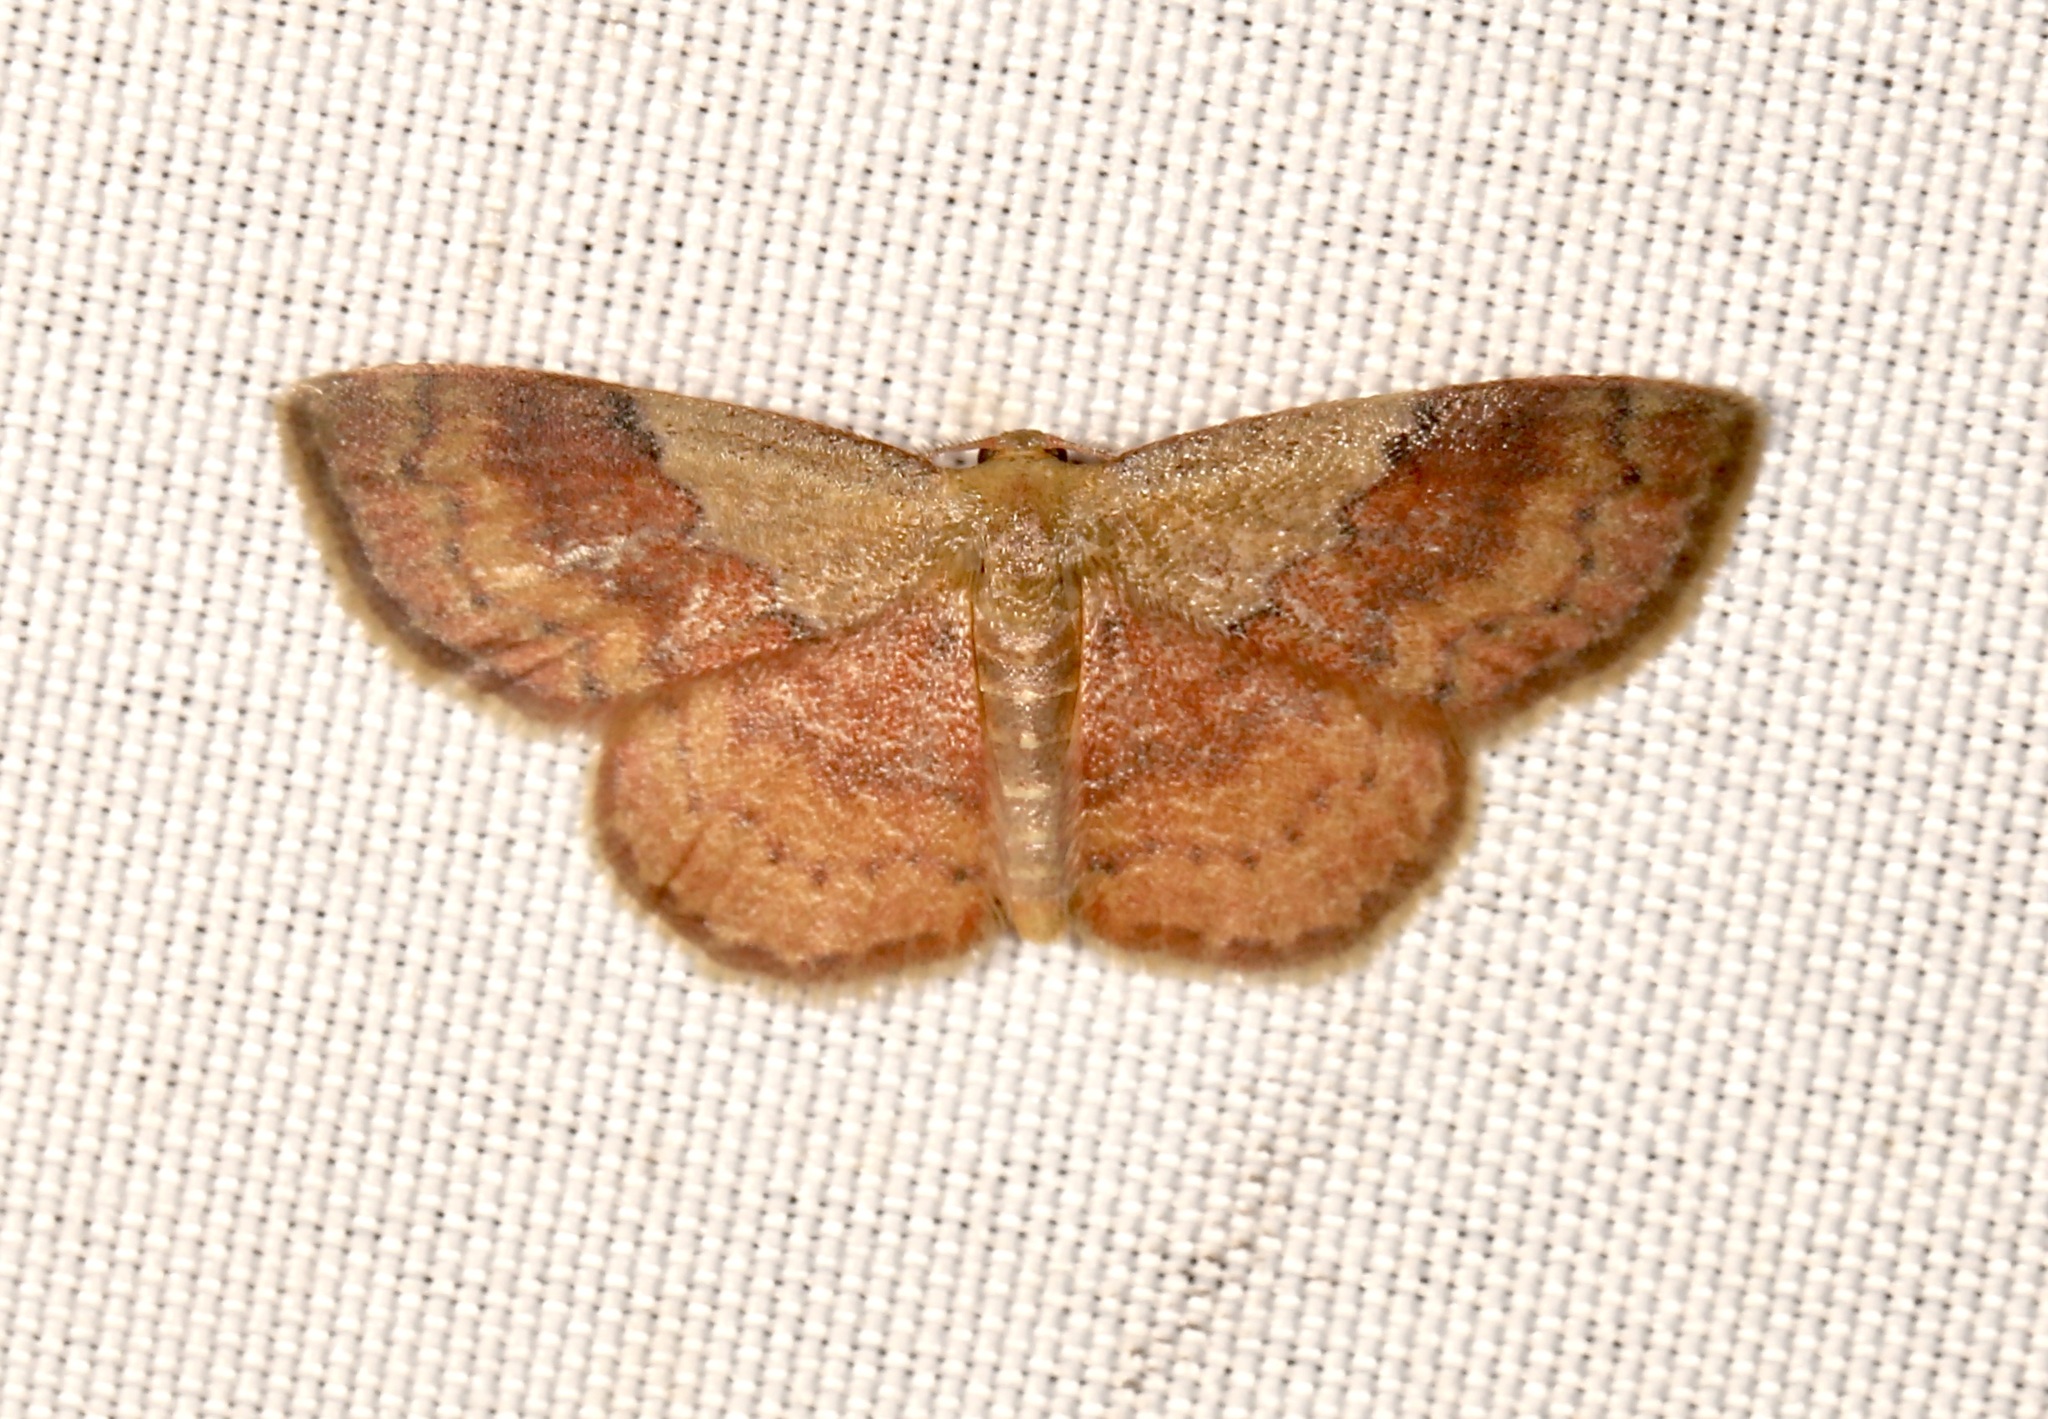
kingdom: Animalia
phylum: Arthropoda
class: Insecta
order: Lepidoptera
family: Geometridae
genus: Leptostales
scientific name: Leptostales ferruminaria
